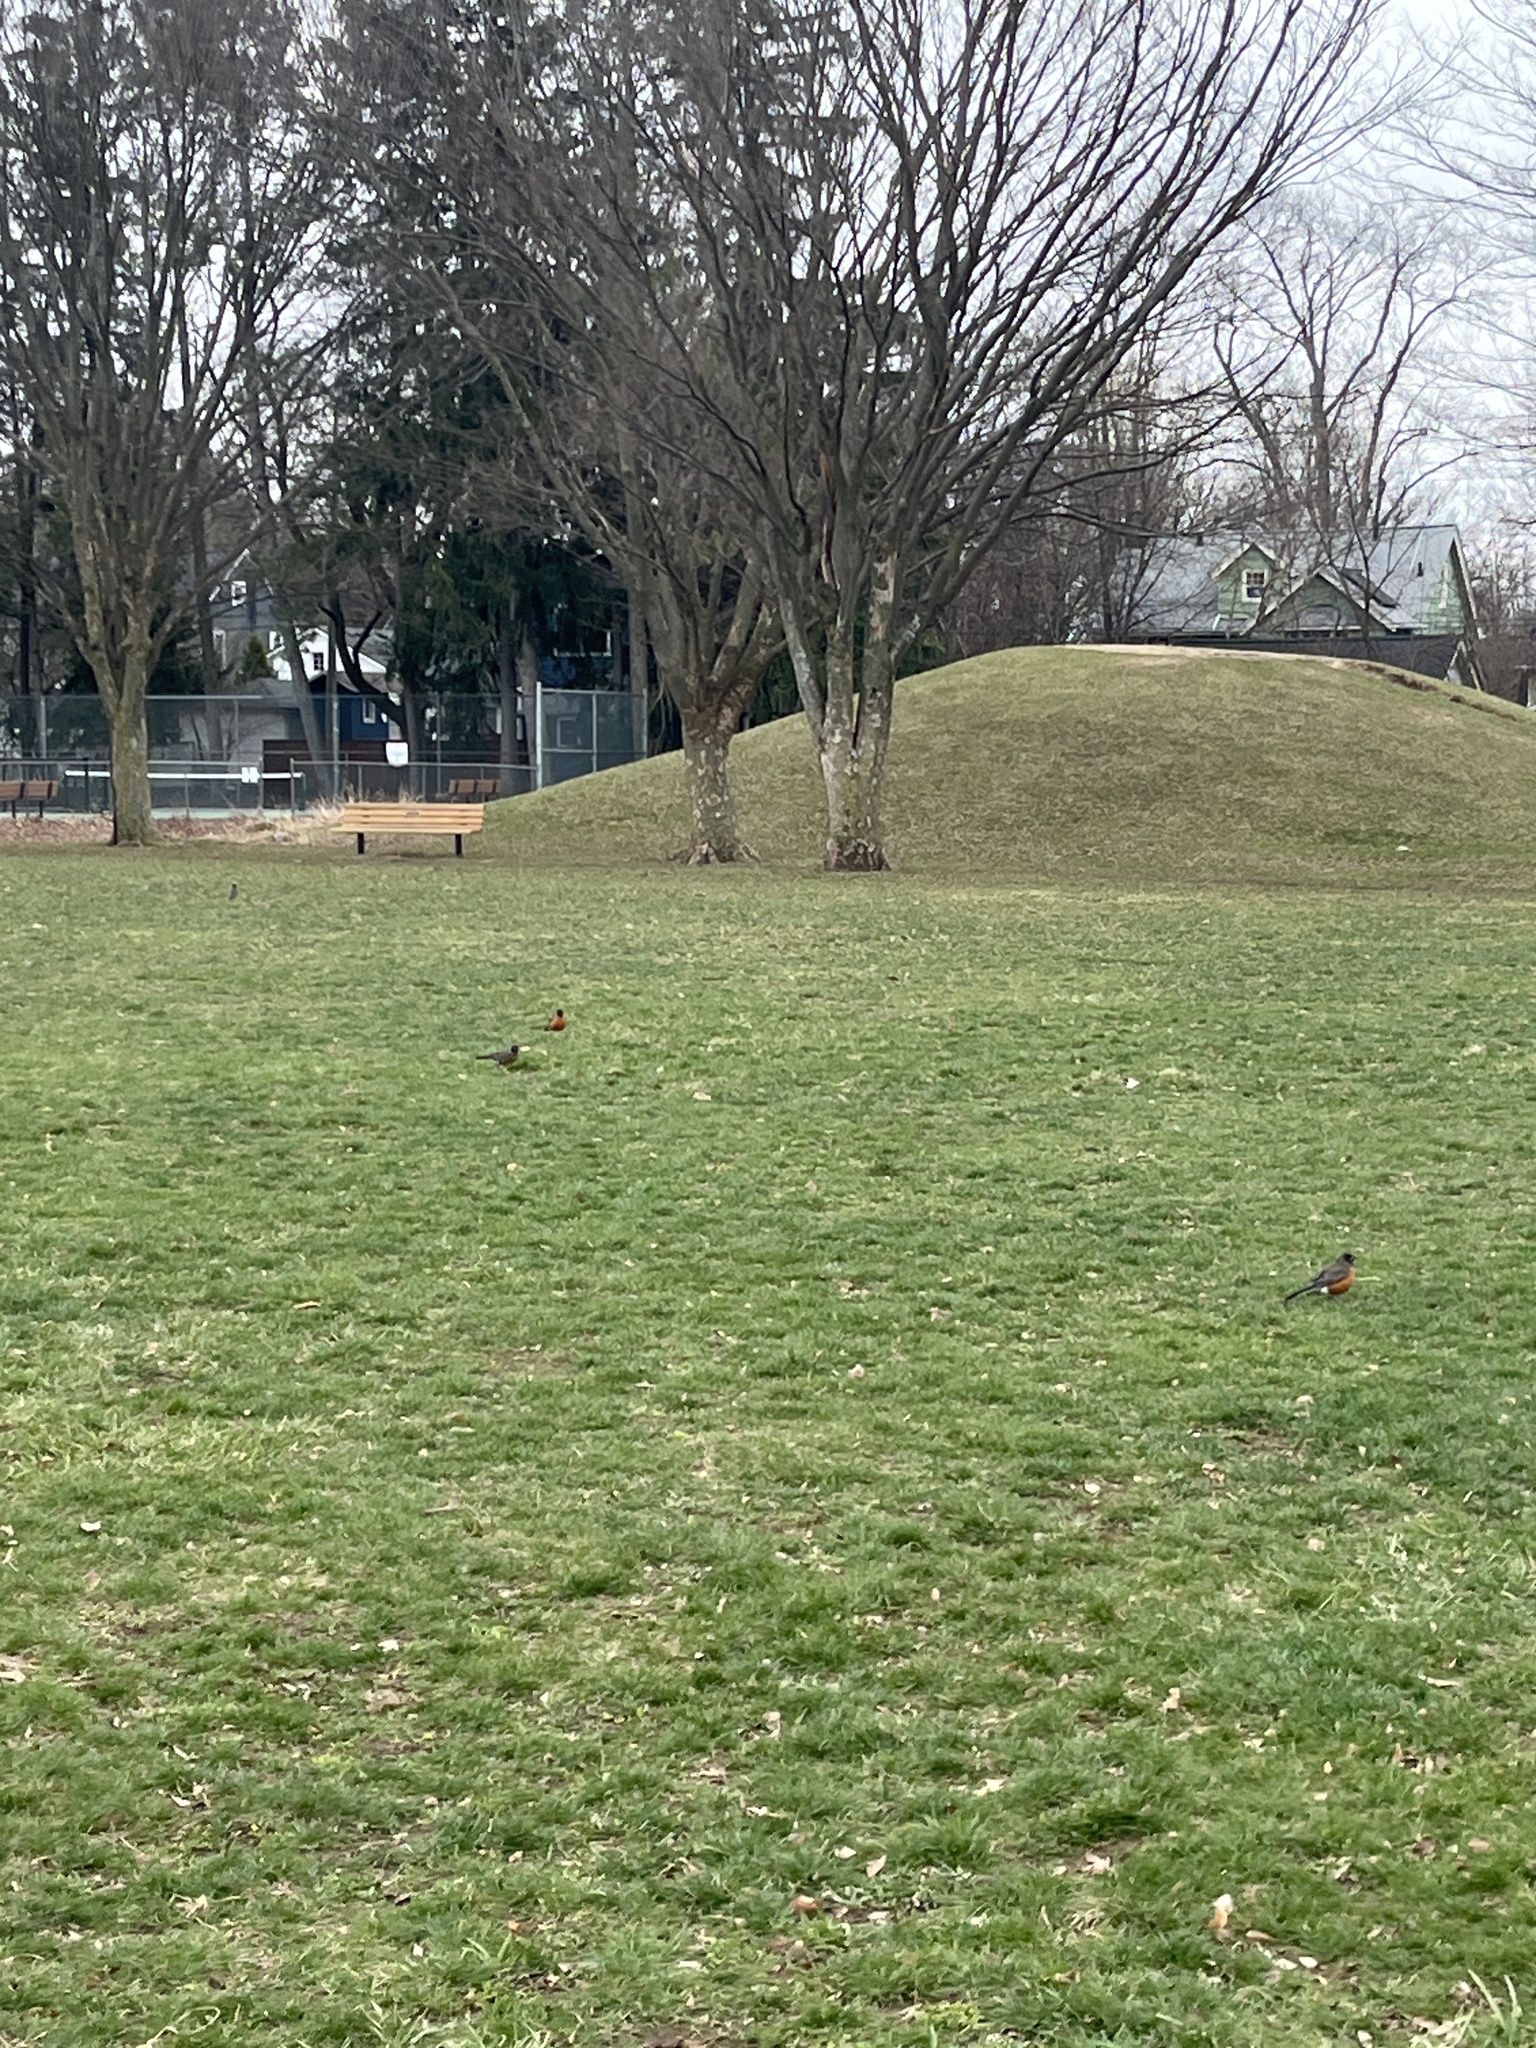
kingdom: Animalia
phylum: Chordata
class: Aves
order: Passeriformes
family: Turdidae
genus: Turdus
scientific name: Turdus migratorius
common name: American robin
